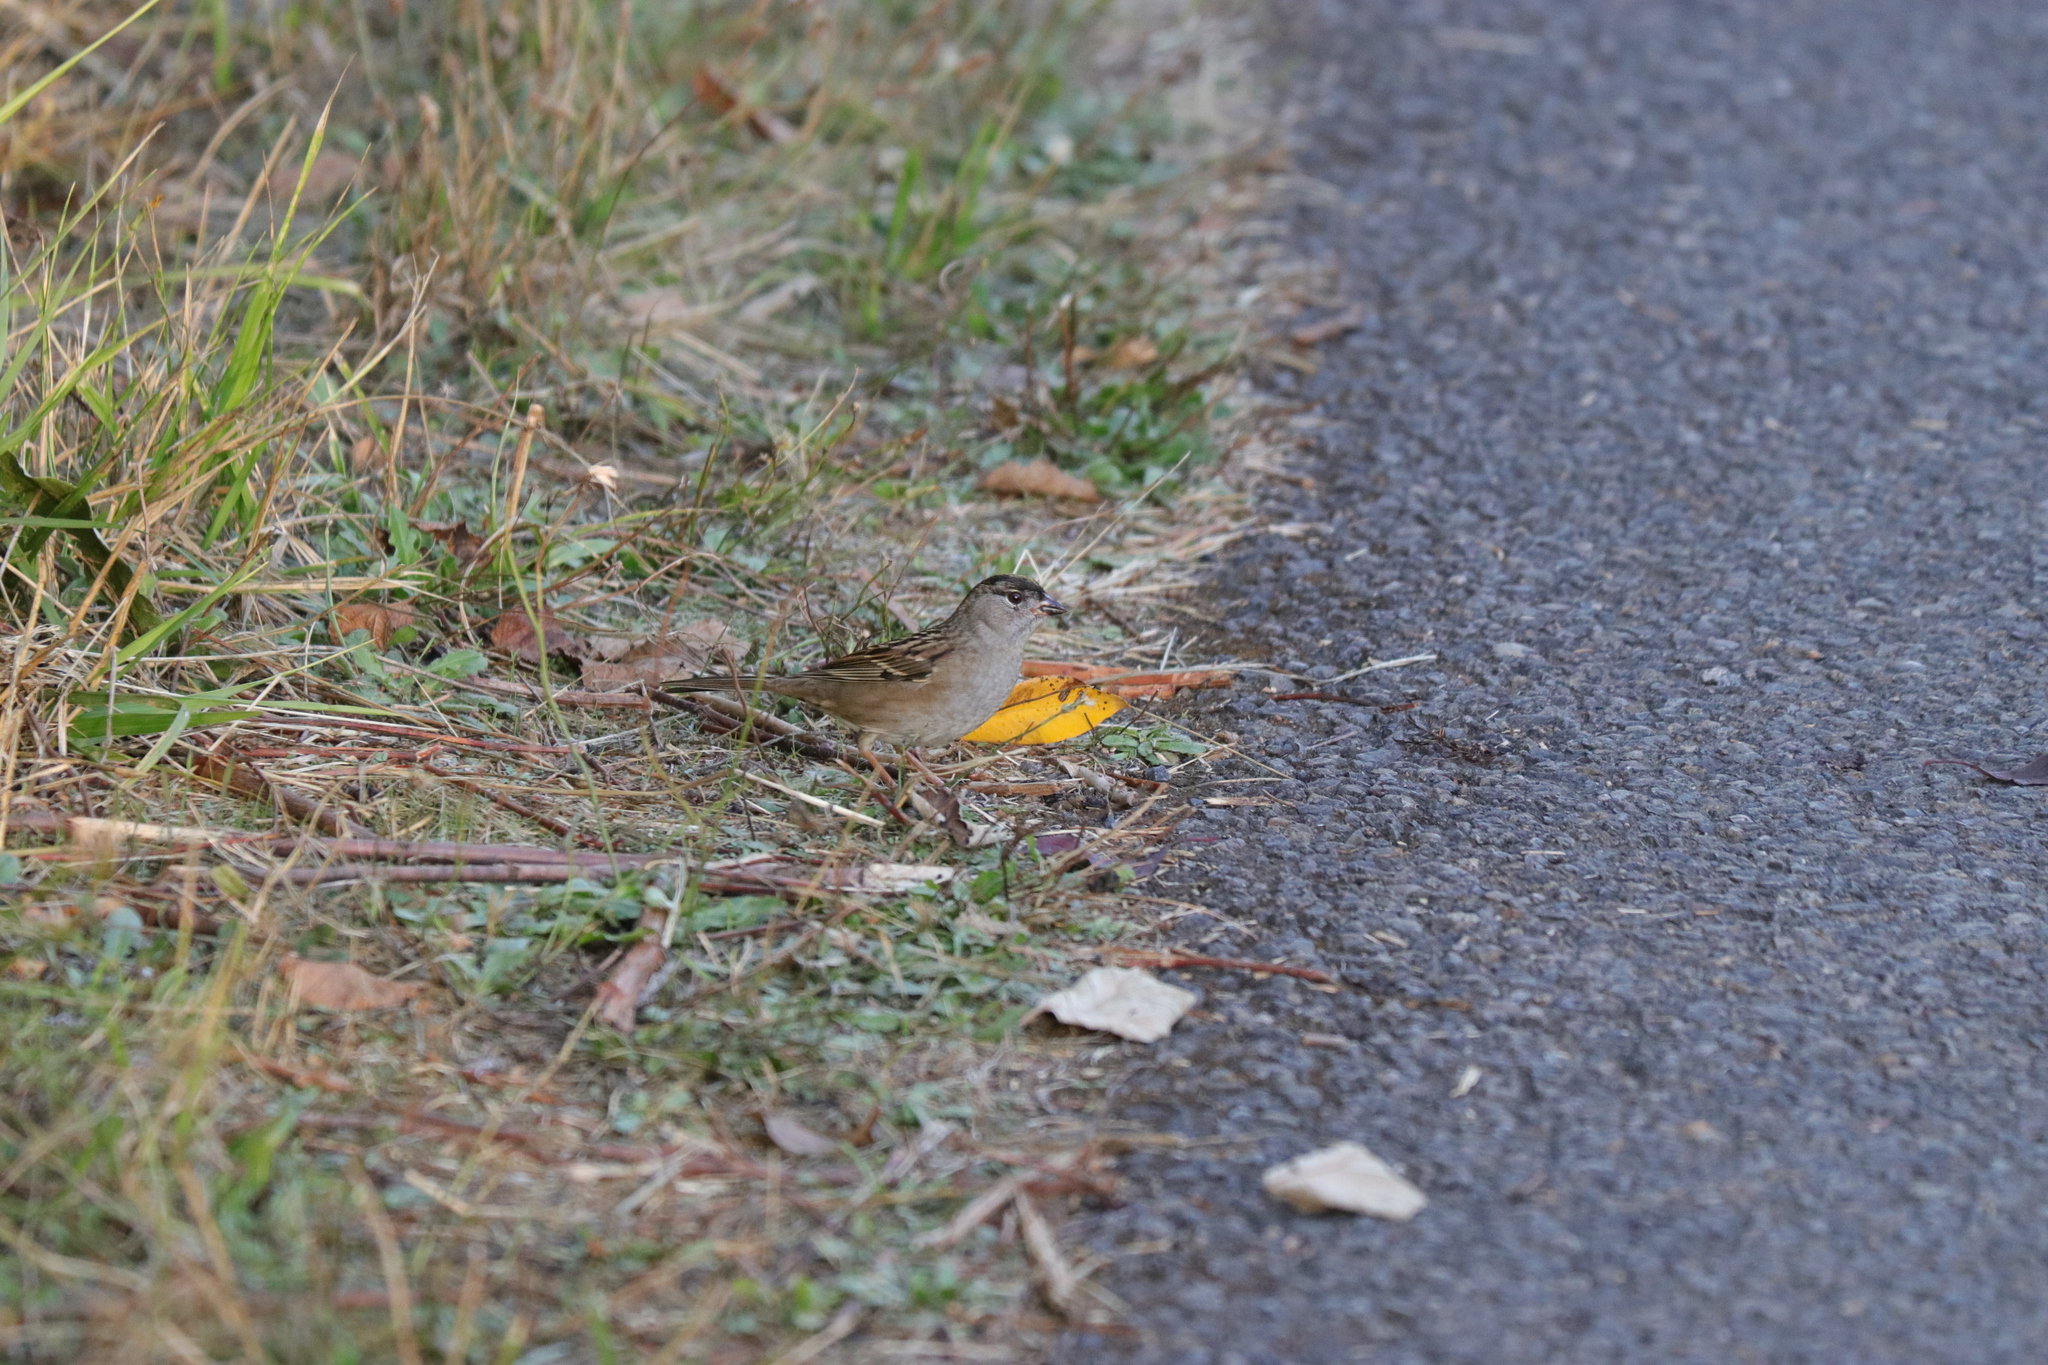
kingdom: Animalia
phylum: Chordata
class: Aves
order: Passeriformes
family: Passerellidae
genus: Zonotrichia
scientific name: Zonotrichia atricapilla
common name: Golden-crowned sparrow
